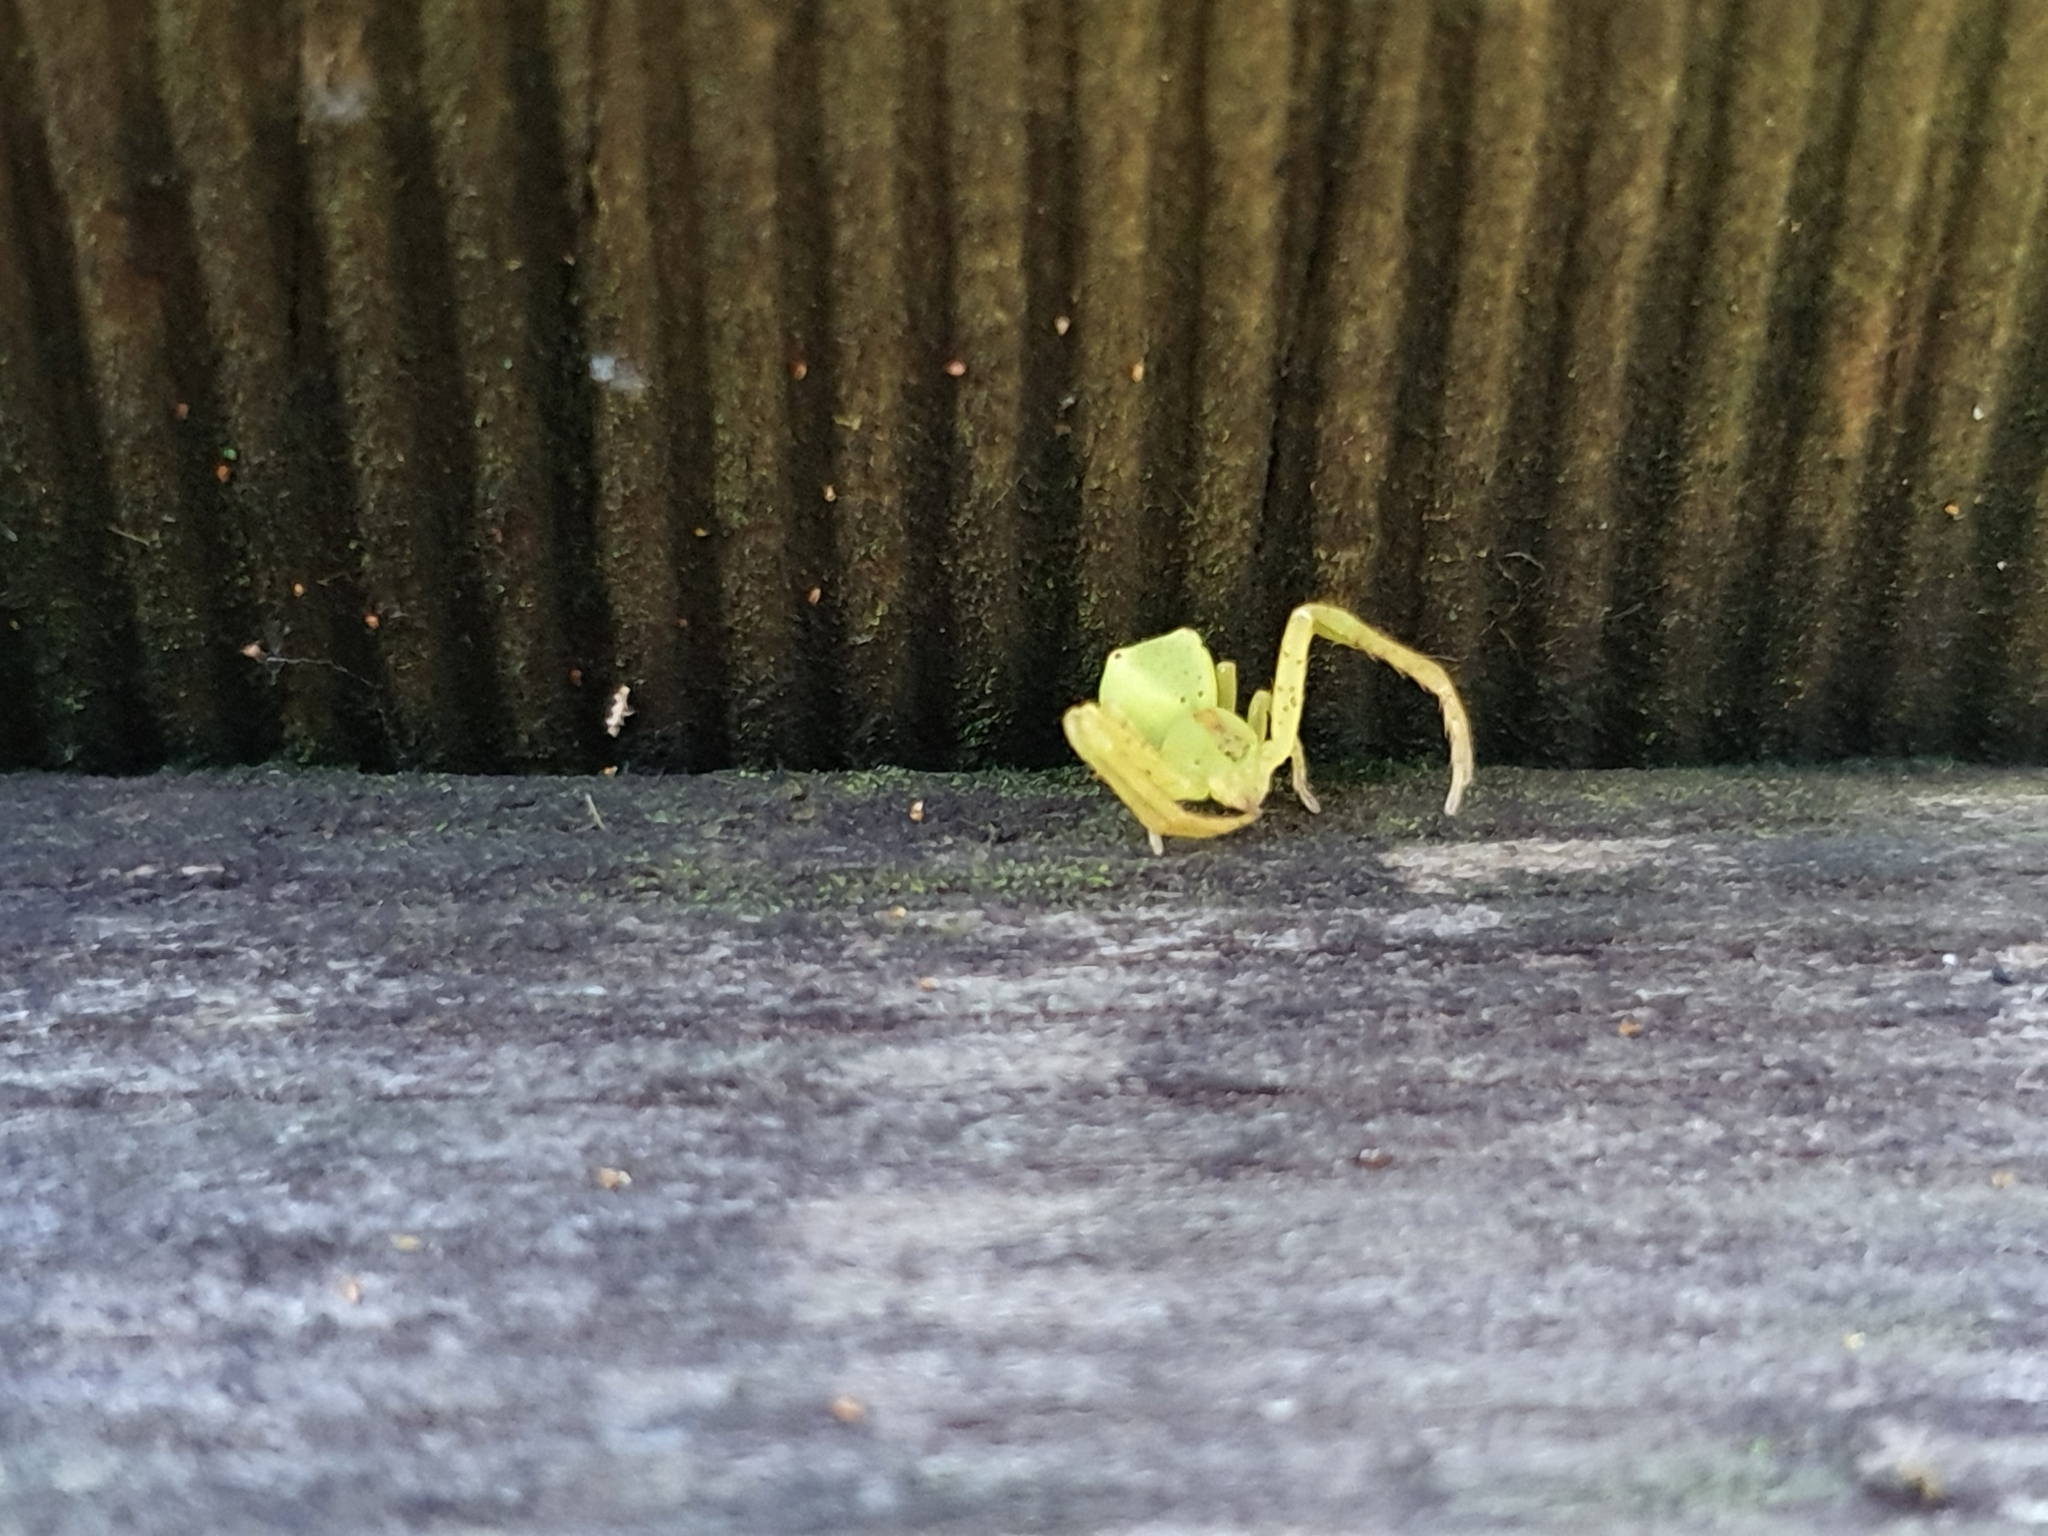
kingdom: Animalia
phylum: Arthropoda
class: Arachnida
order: Araneae
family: Thomisidae
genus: Sidymella
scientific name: Sidymella rubrosignata
